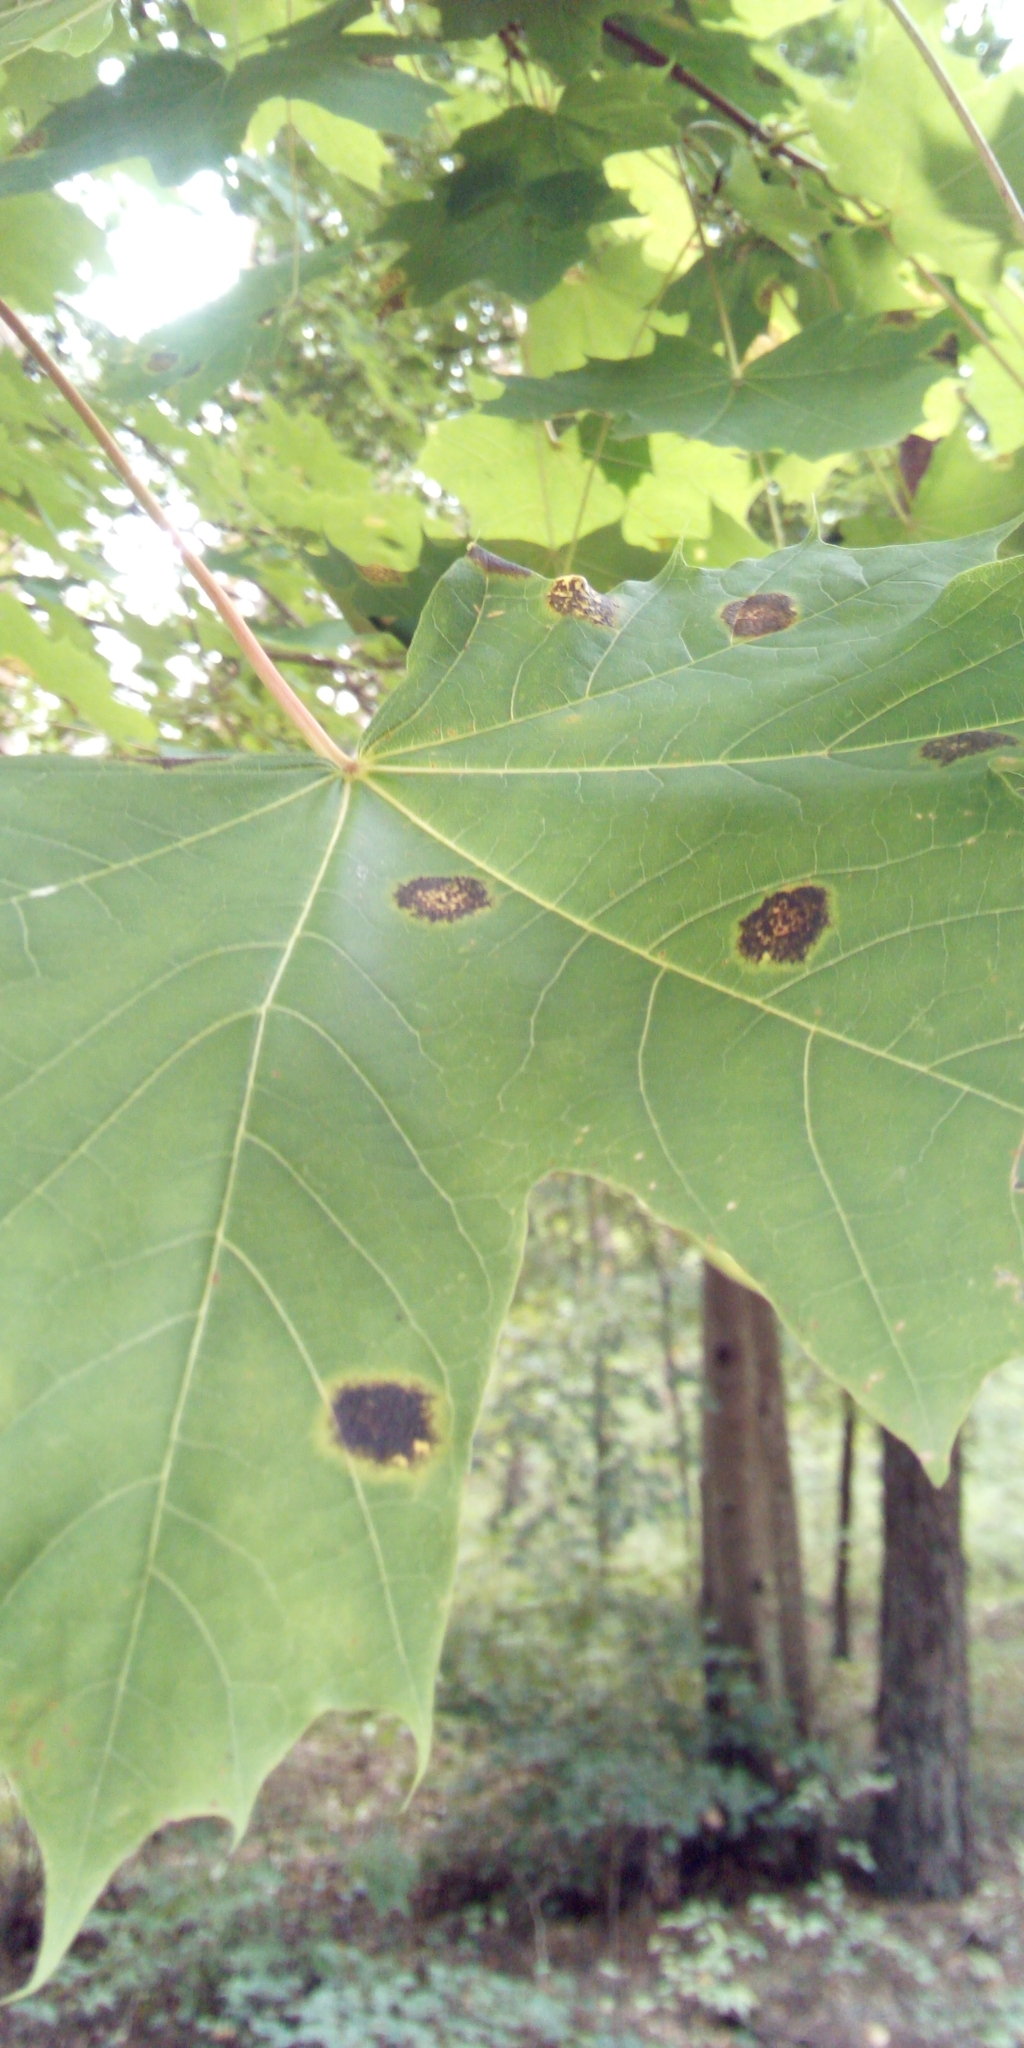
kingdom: Fungi
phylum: Ascomycota
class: Leotiomycetes
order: Rhytismatales
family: Rhytismataceae
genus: Rhytisma
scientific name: Rhytisma acerinum
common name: European tar spot
